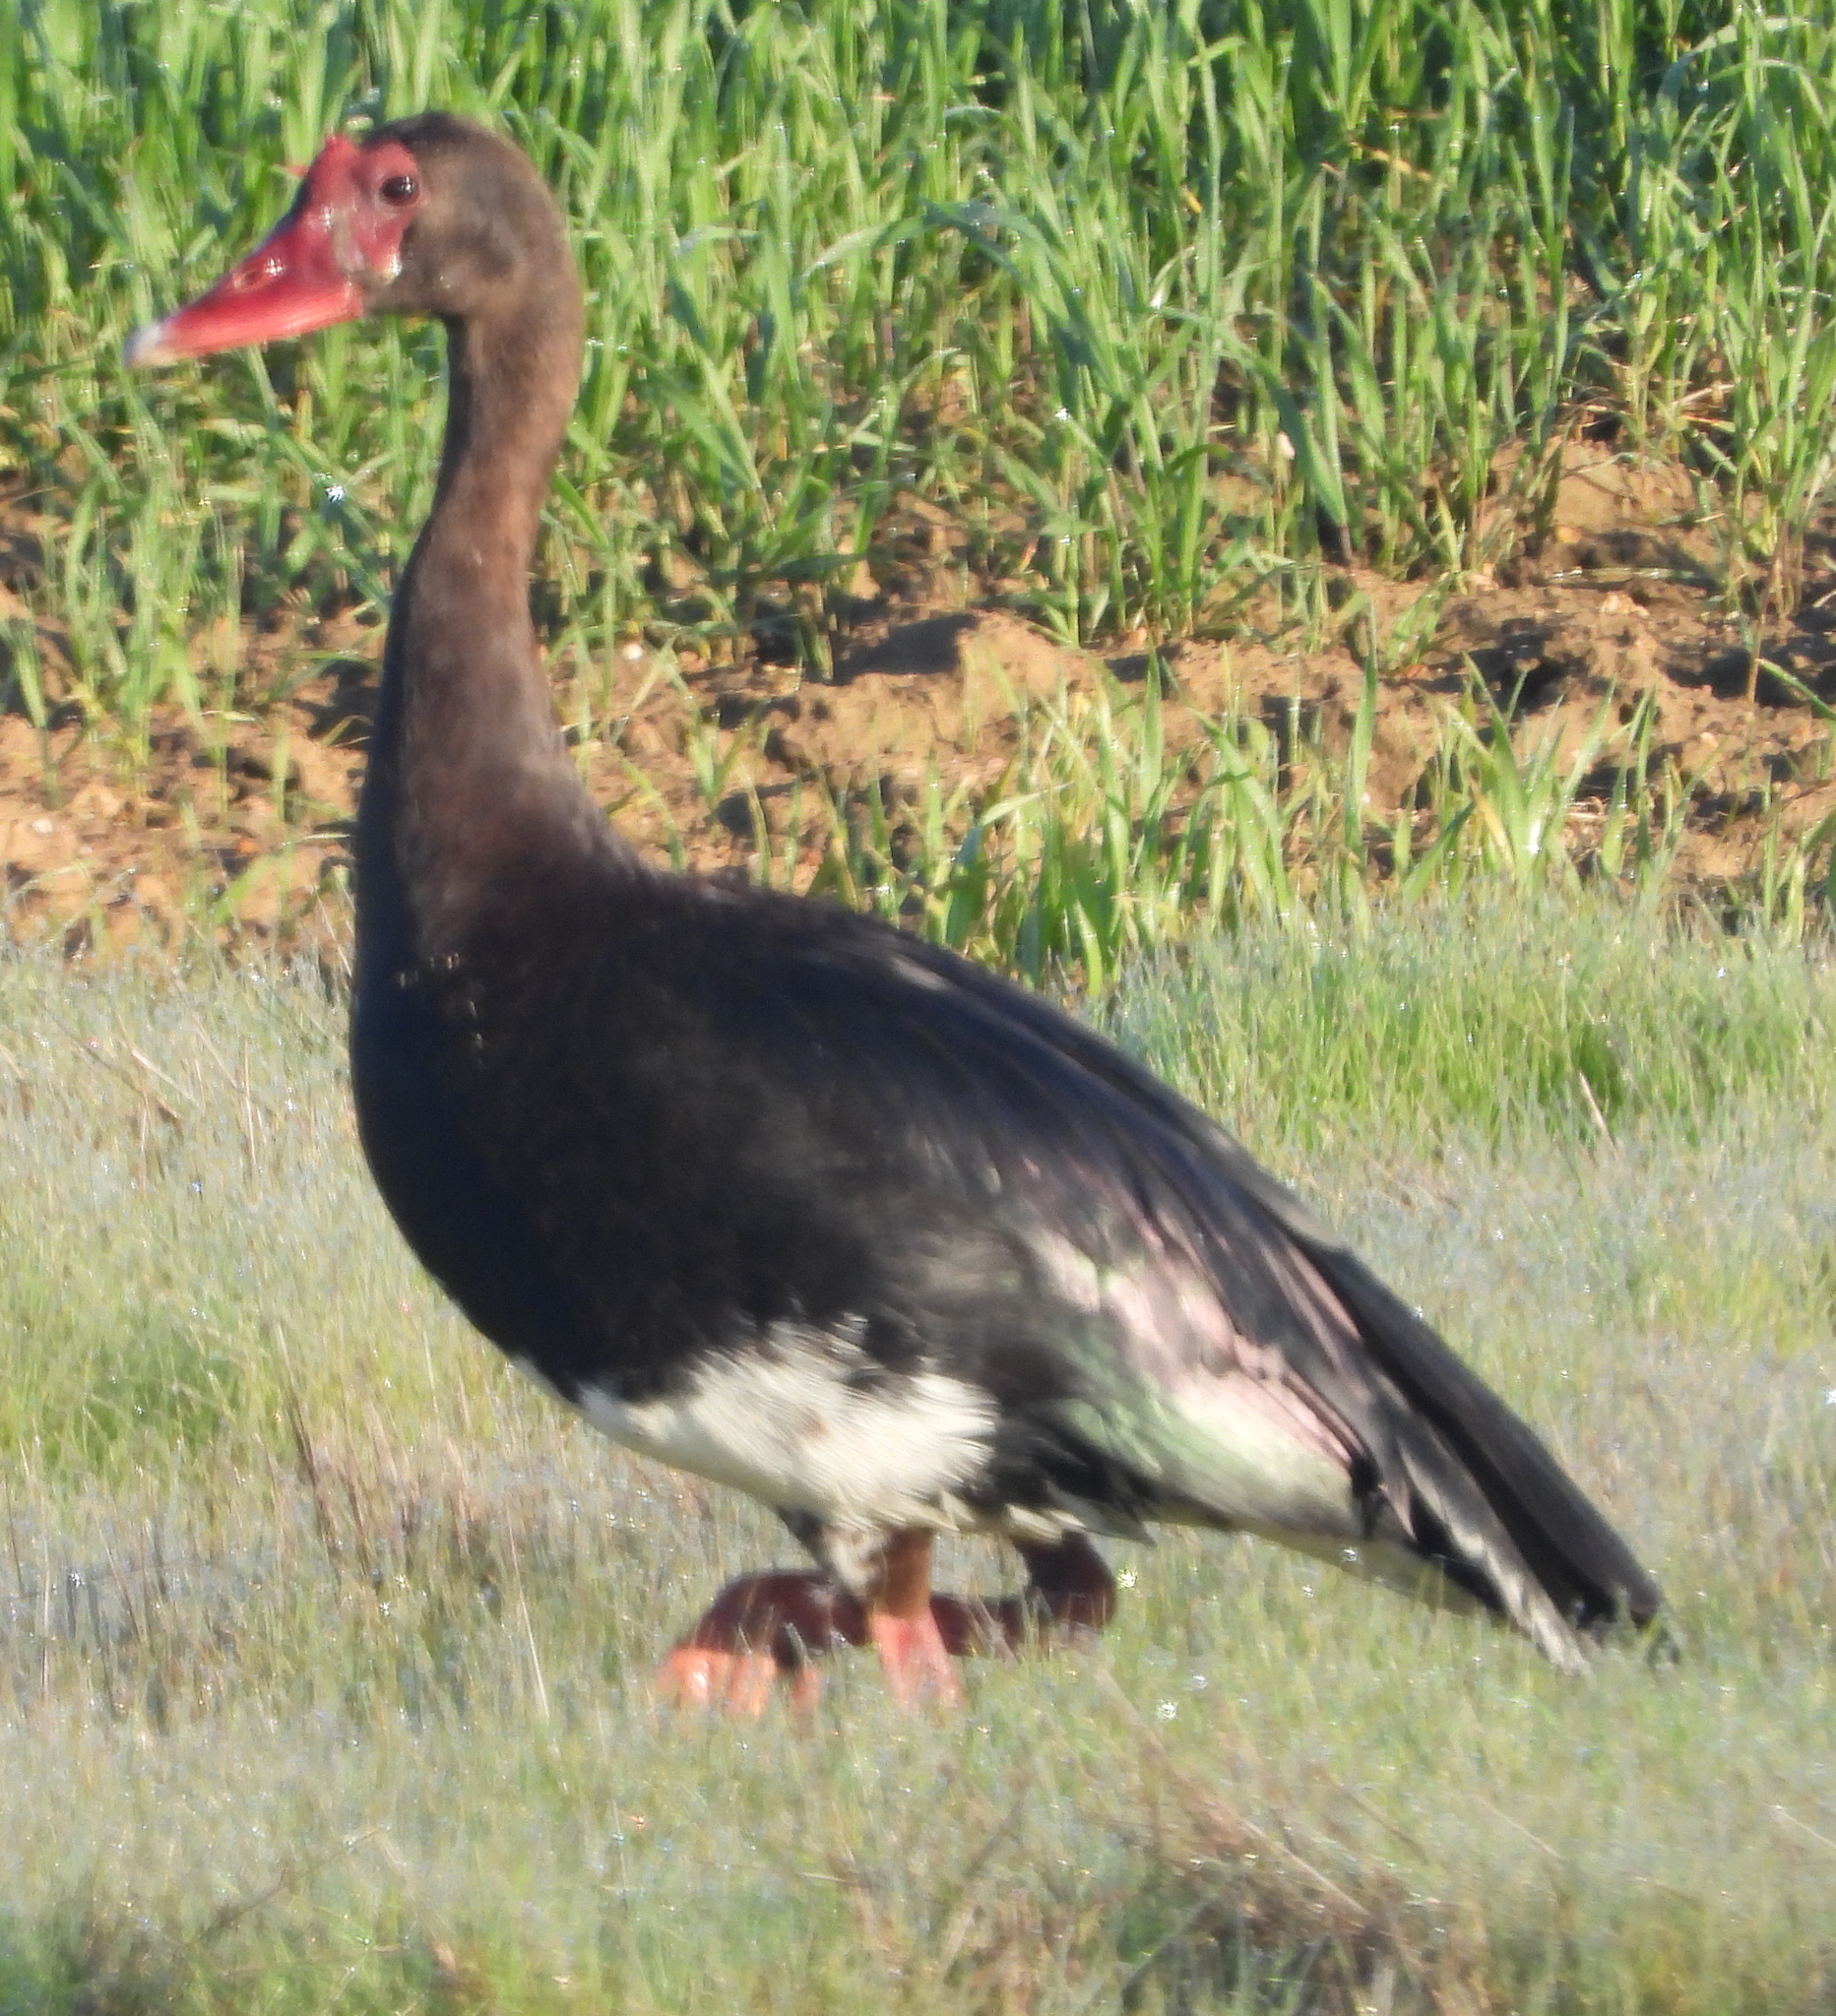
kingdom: Animalia
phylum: Chordata
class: Aves
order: Anseriformes
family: Anatidae
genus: Plectropterus
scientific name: Plectropterus gambensis
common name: Spur-winged goose
